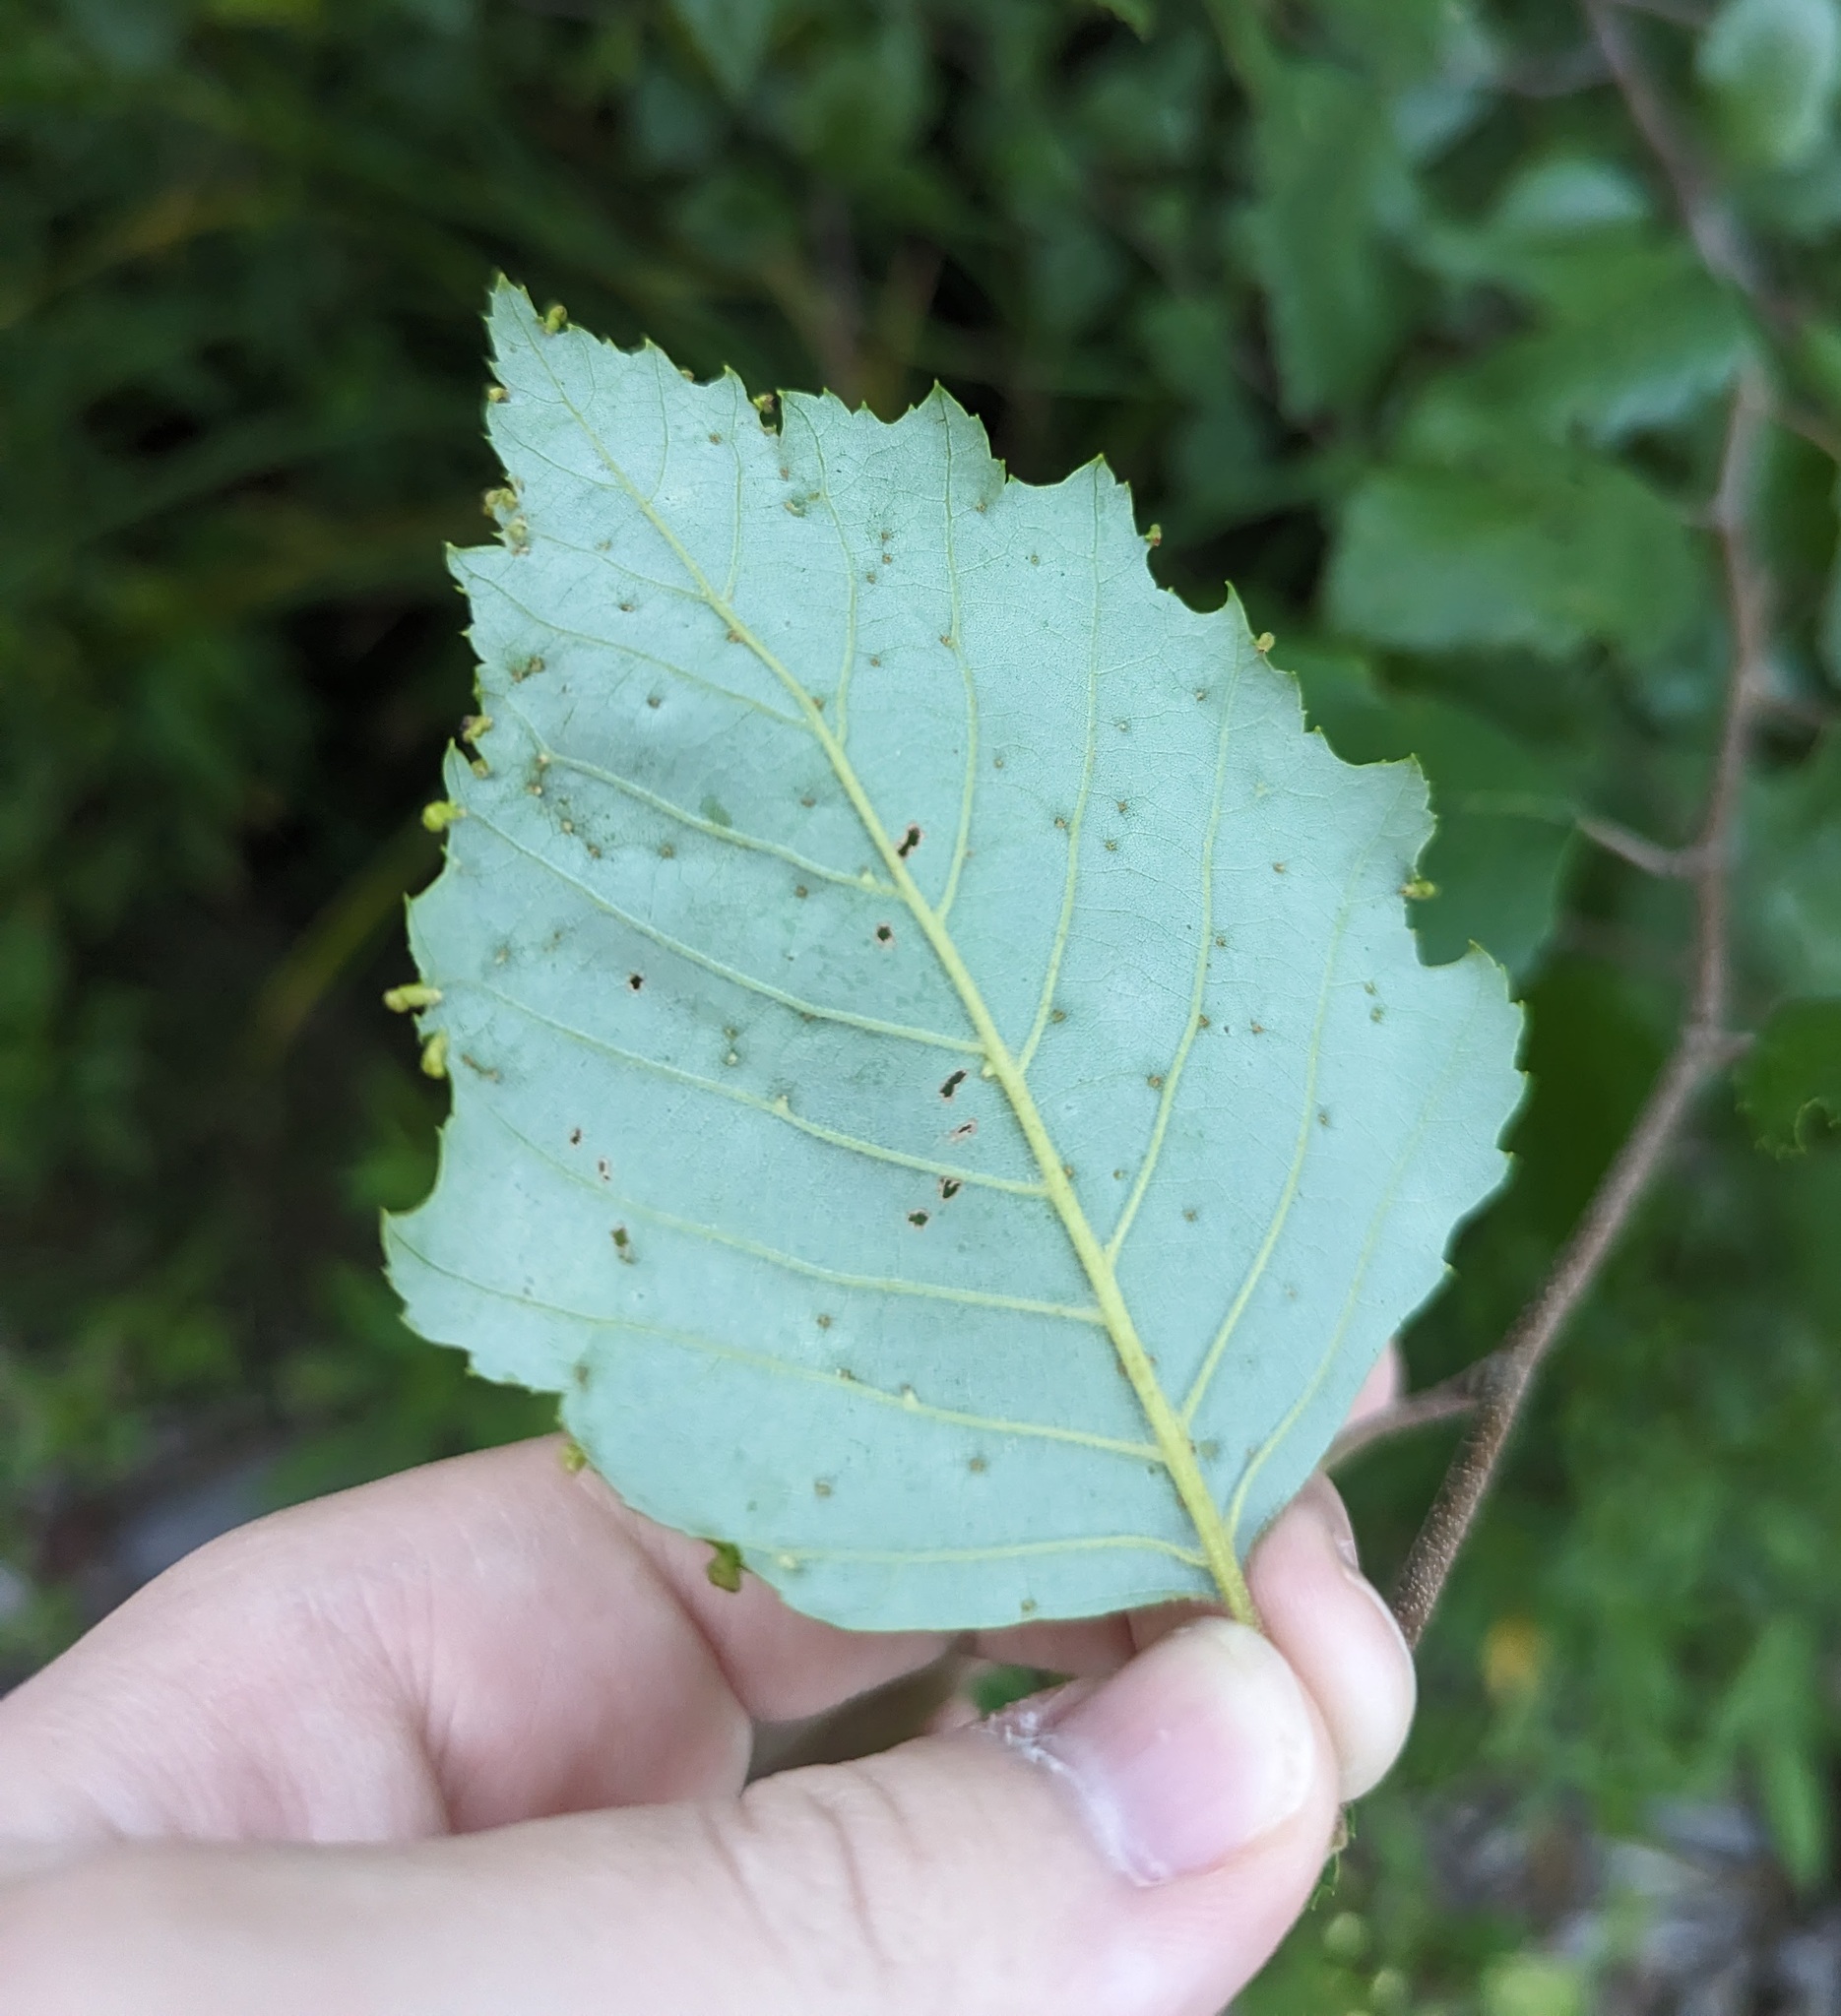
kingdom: Animalia
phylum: Arthropoda
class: Arachnida
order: Trombidiformes
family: Eriophyidae
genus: Aculus
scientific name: Aculus leionotus
